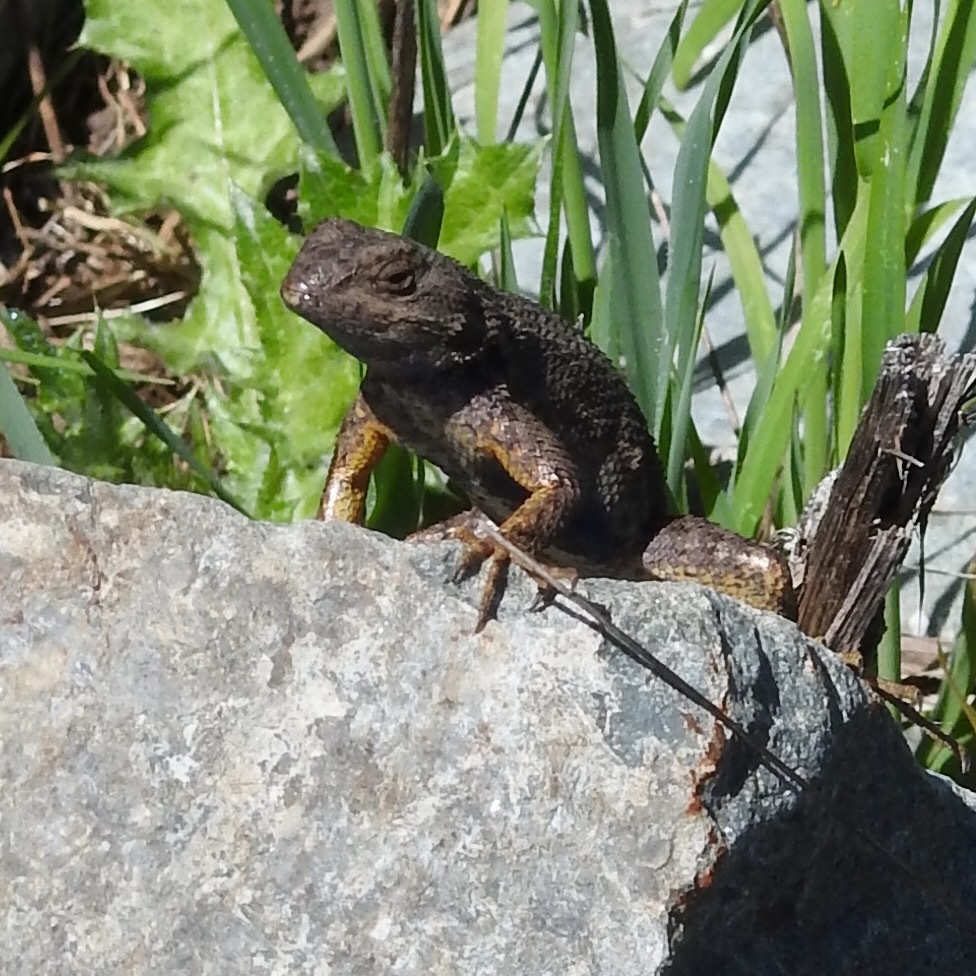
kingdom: Animalia
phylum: Chordata
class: Squamata
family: Phrynosomatidae
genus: Sceloporus
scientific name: Sceloporus occidentalis
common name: Western fence lizard
